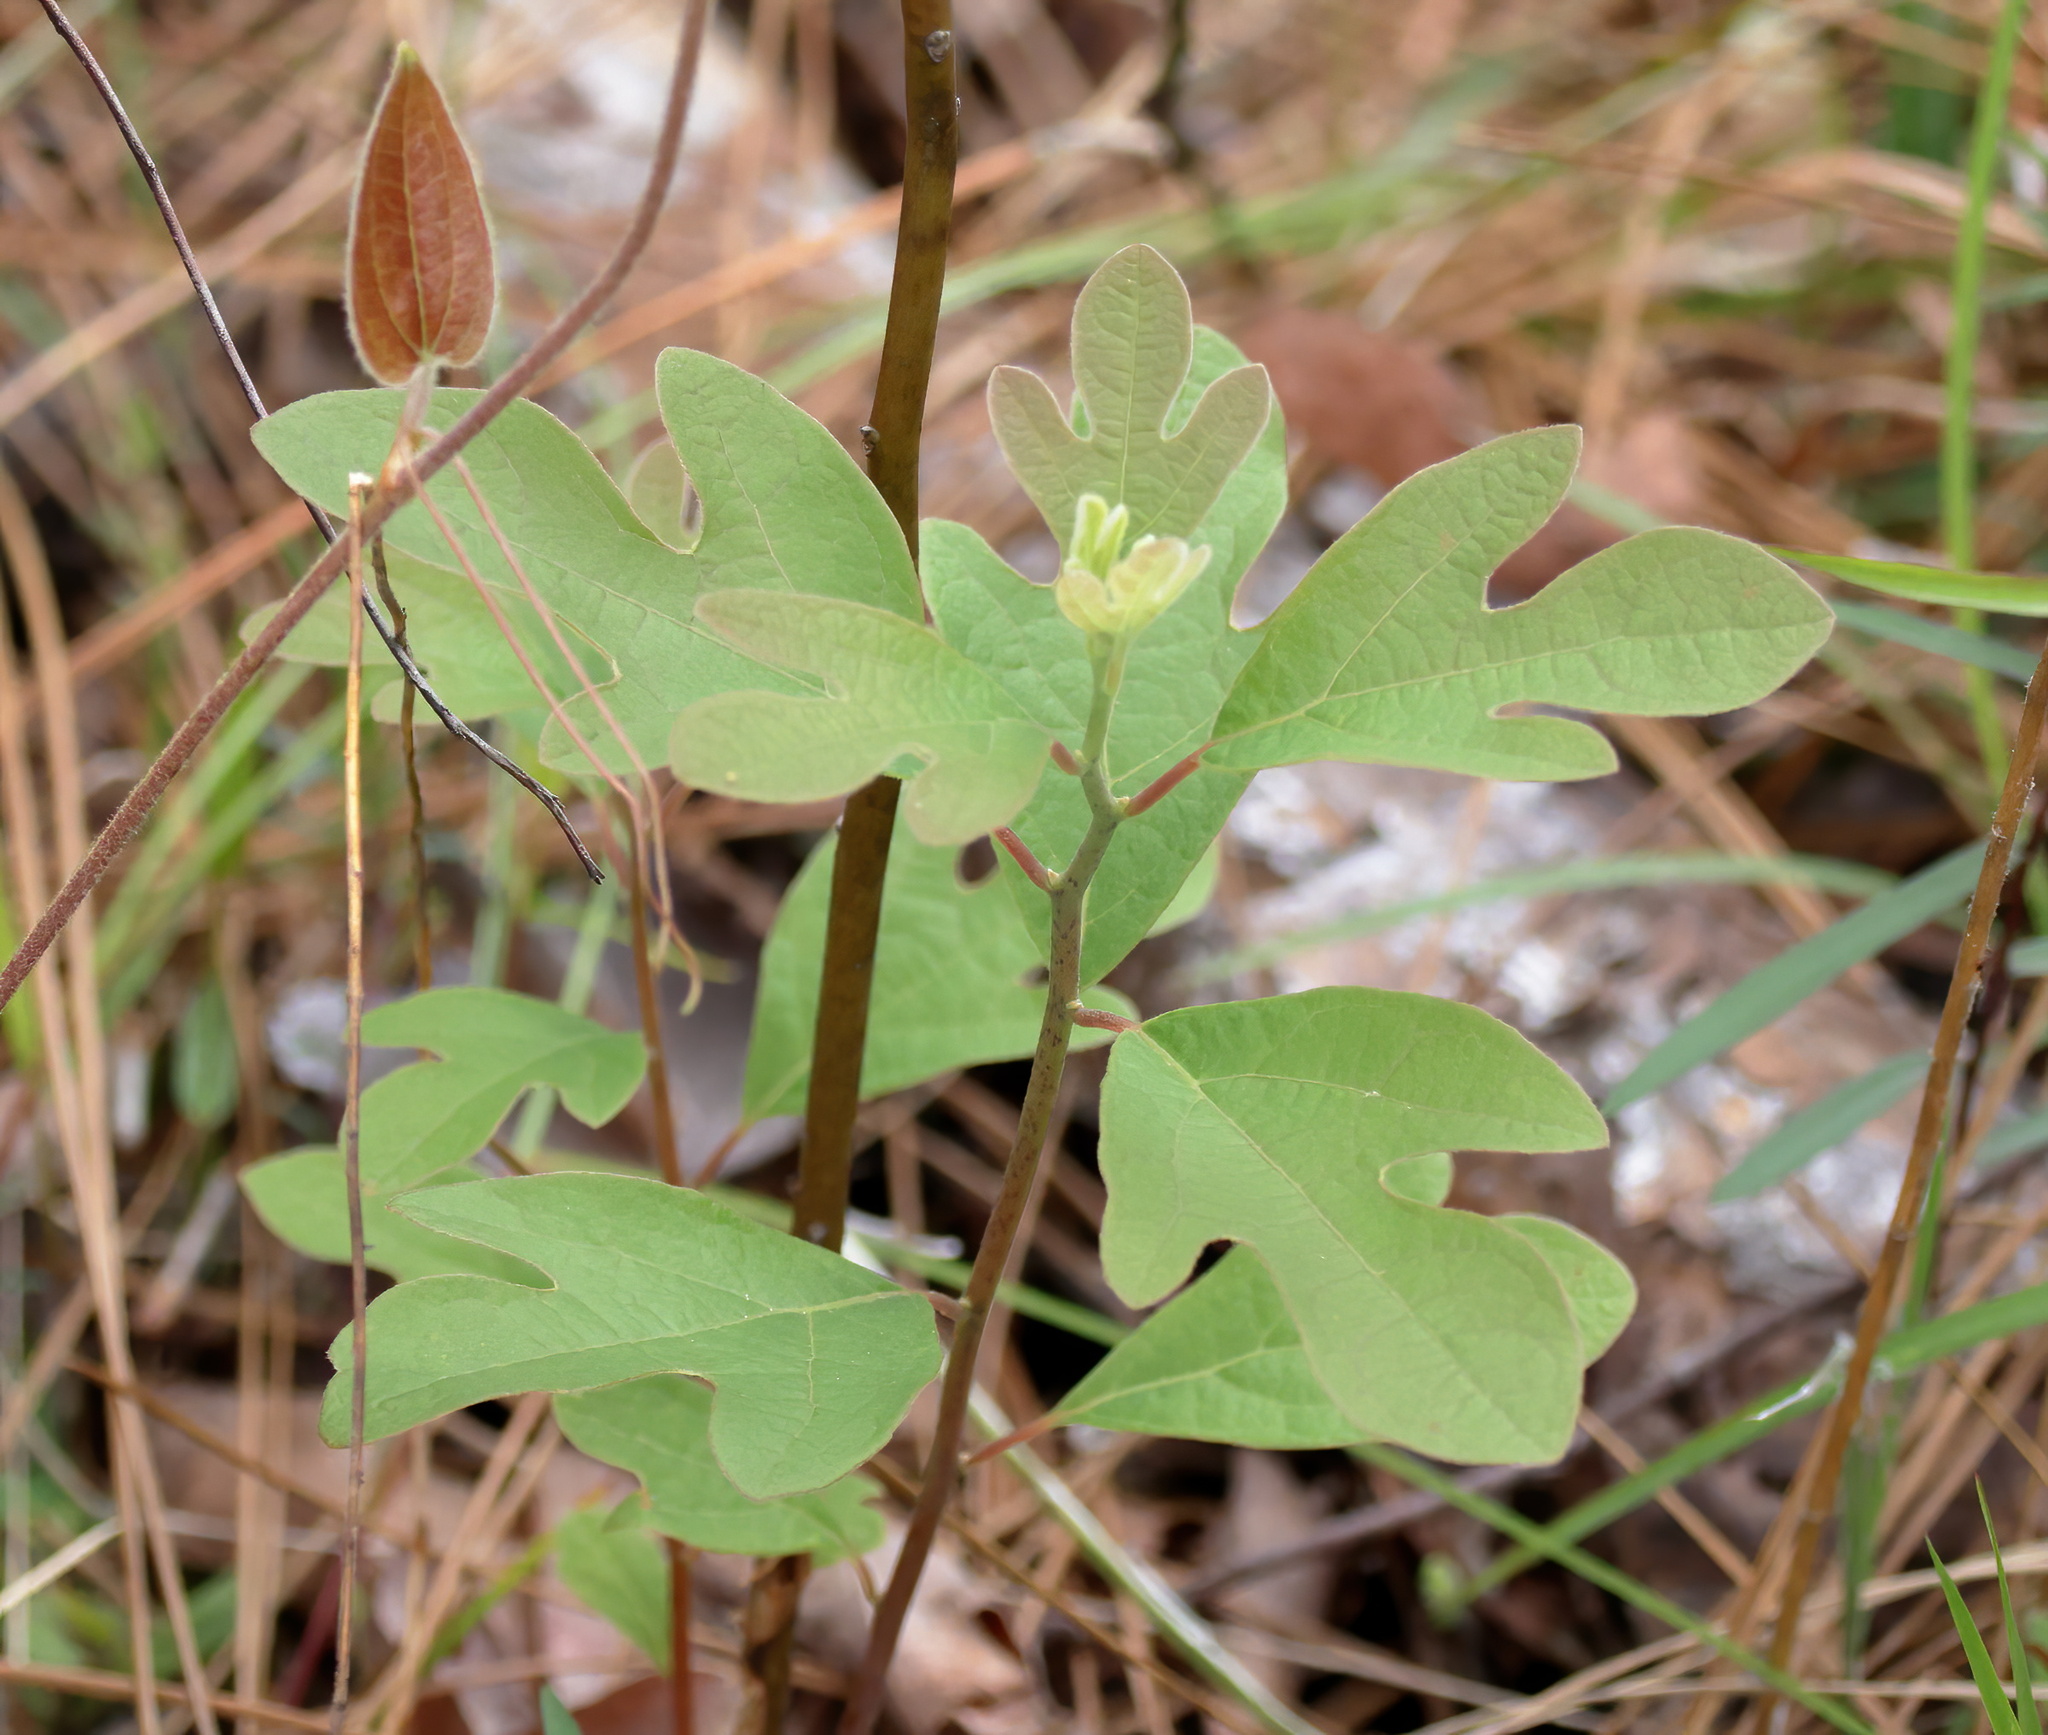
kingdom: Plantae
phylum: Tracheophyta
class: Magnoliopsida
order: Laurales
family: Lauraceae
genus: Sassafras
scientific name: Sassafras albidum
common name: Sassafras
